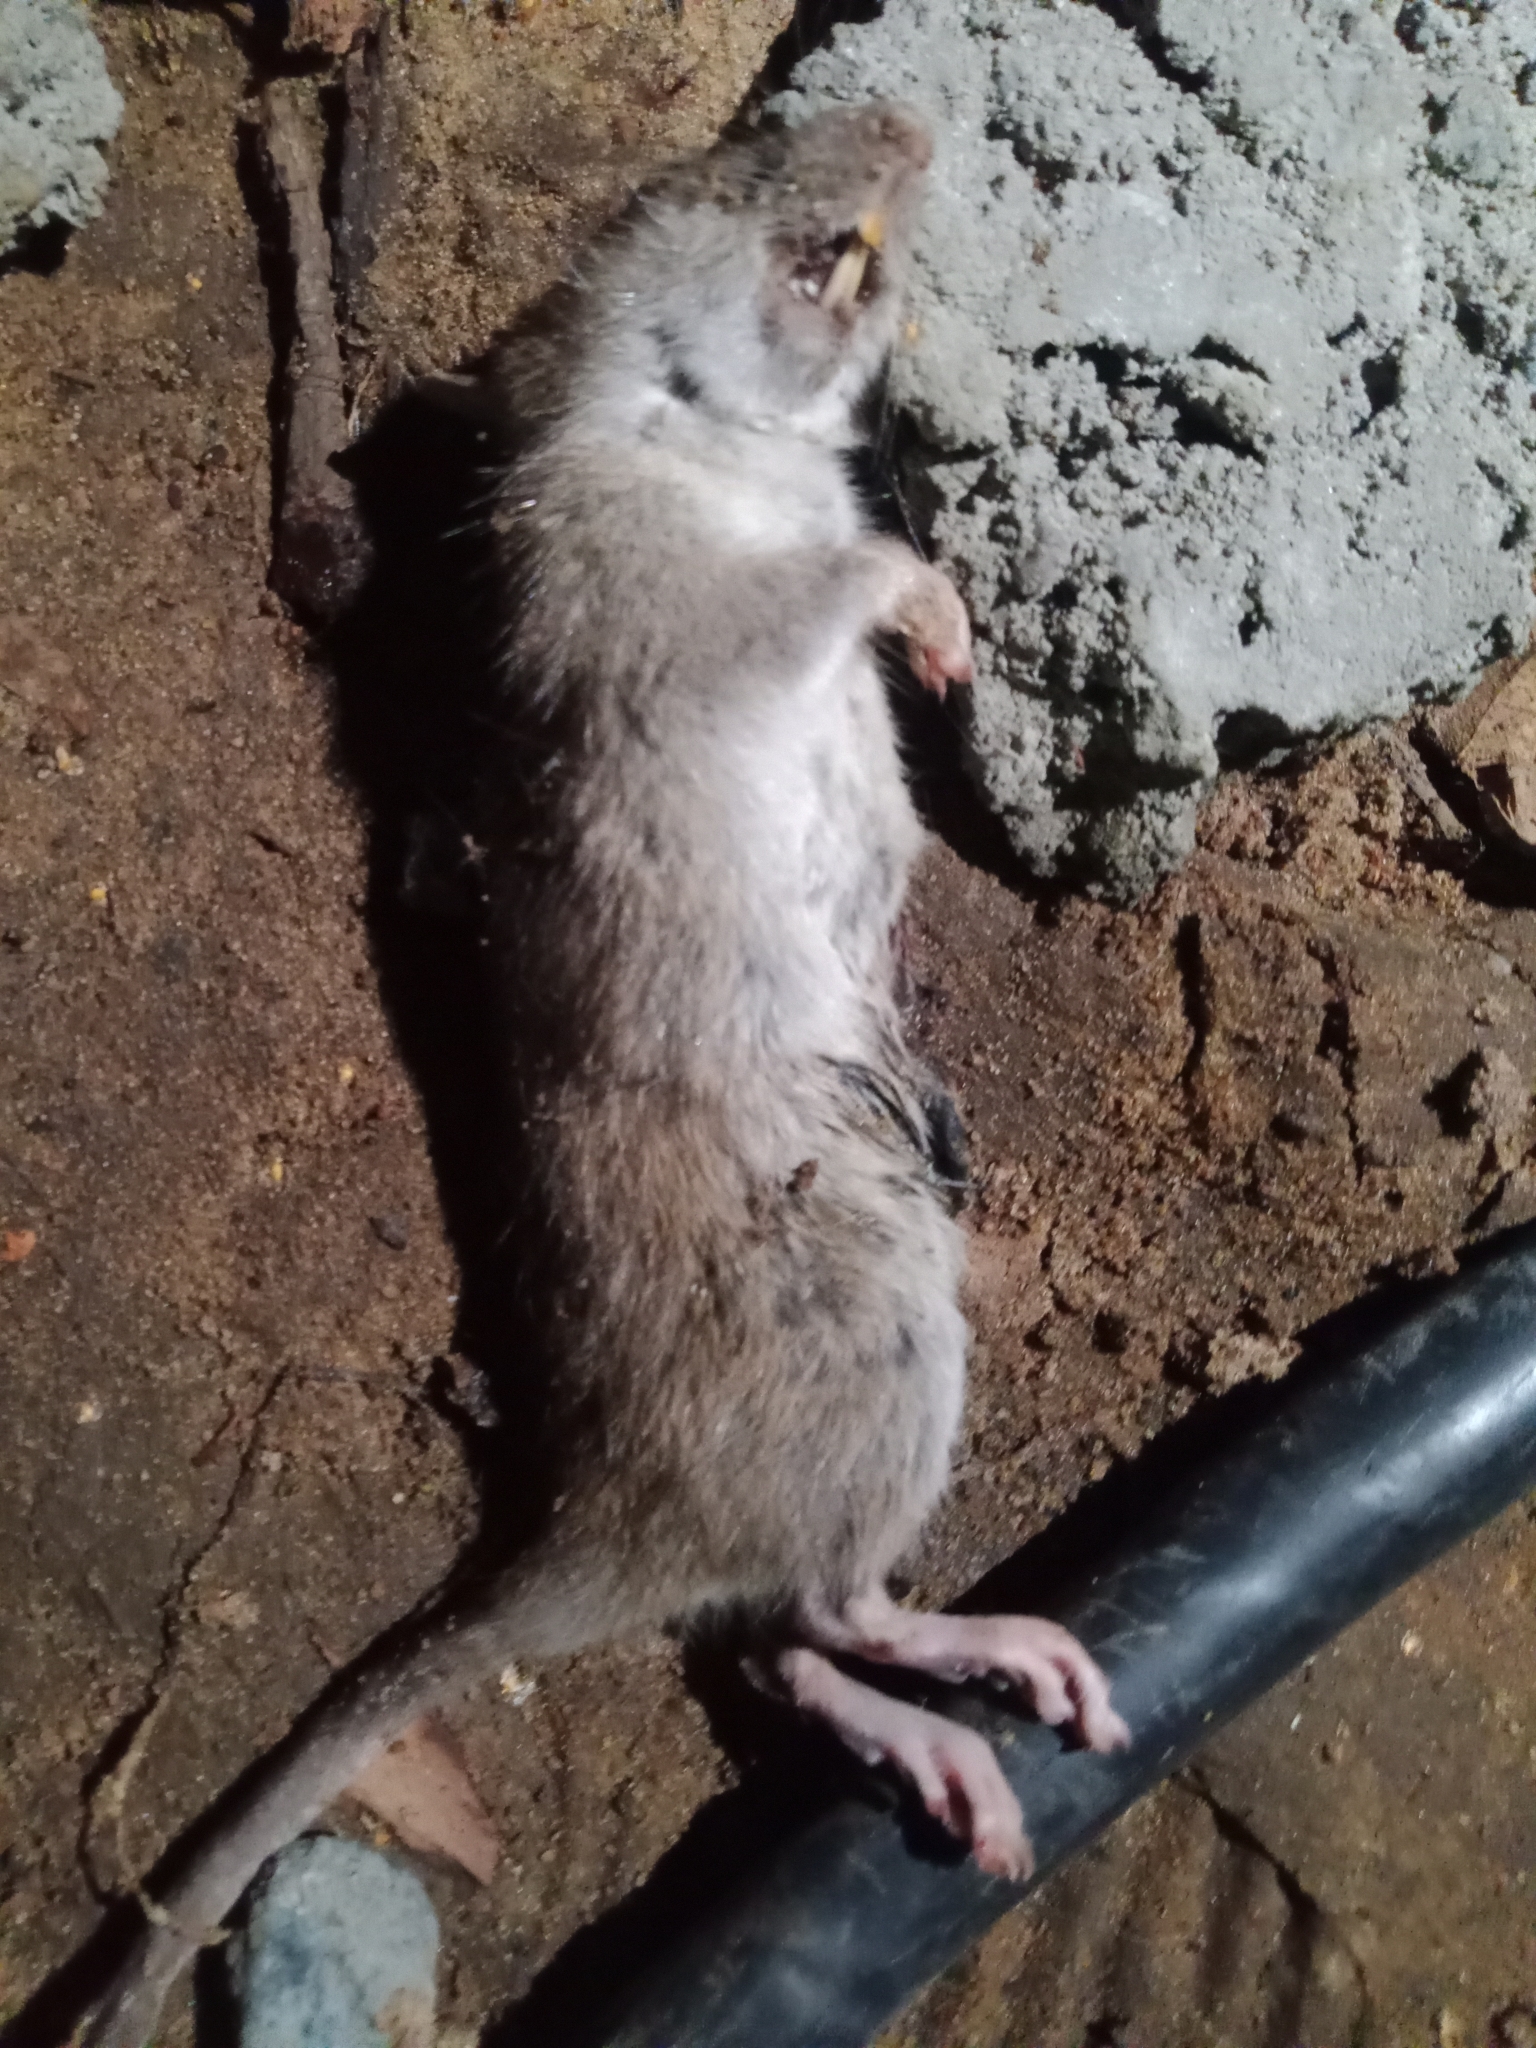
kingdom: Animalia
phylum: Chordata
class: Mammalia
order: Rodentia
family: Muridae
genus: Rattus
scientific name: Rattus norvegicus
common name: Brown rat
